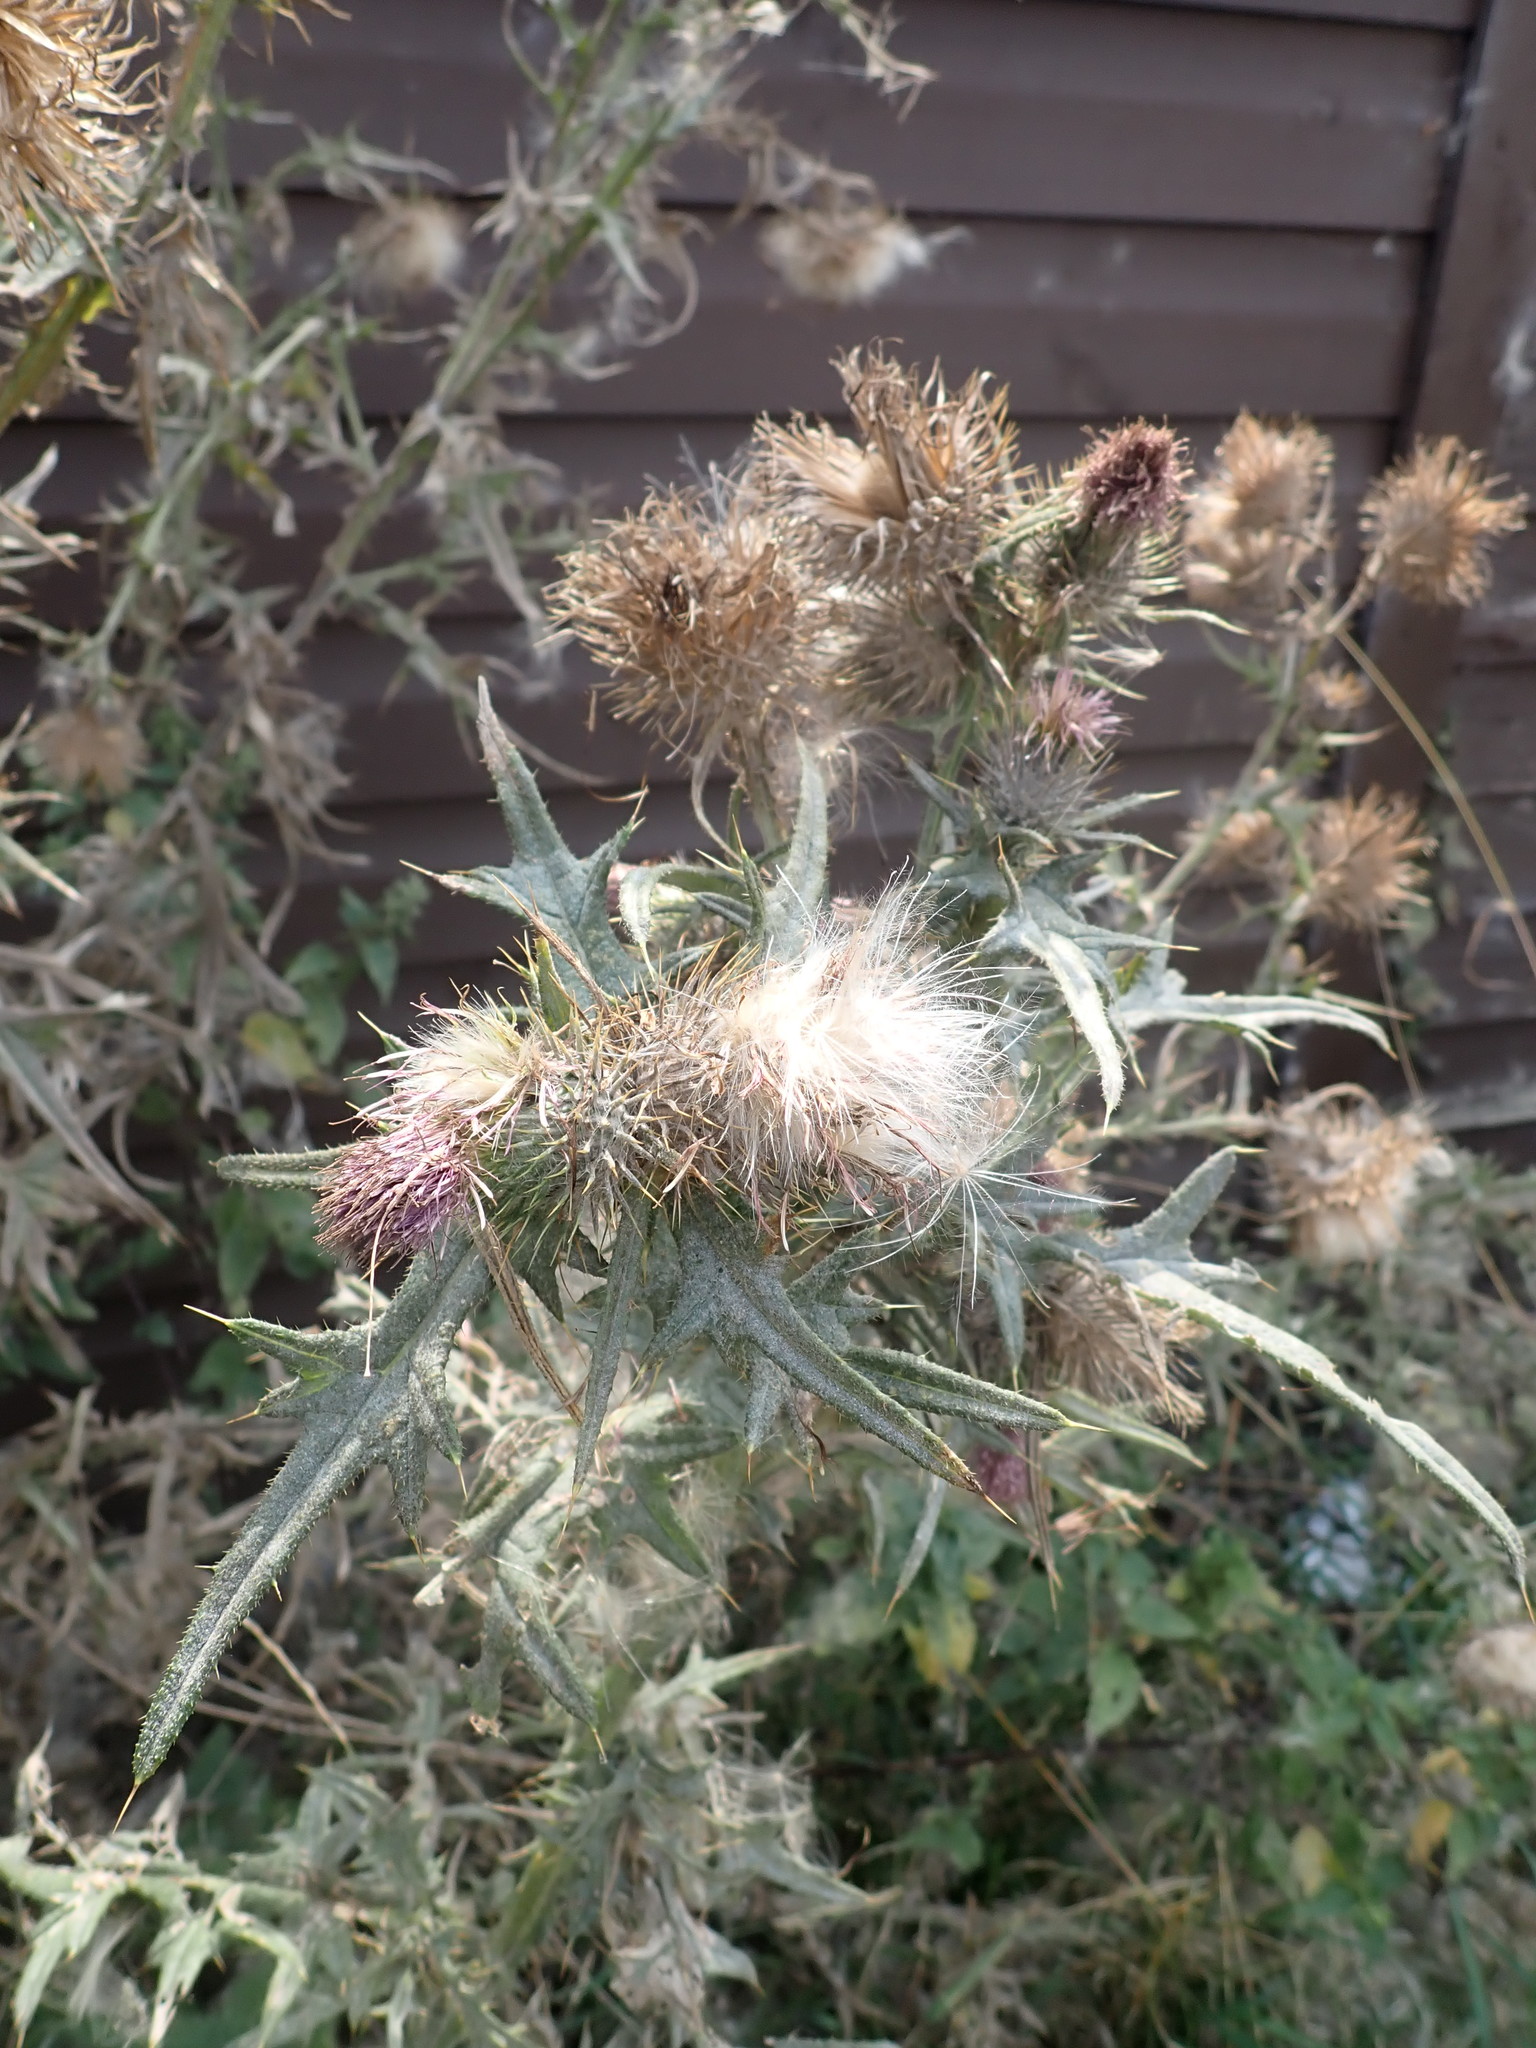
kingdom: Plantae
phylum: Tracheophyta
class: Magnoliopsida
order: Asterales
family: Asteraceae
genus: Cirsium
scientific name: Cirsium vulgare
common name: Bull thistle
